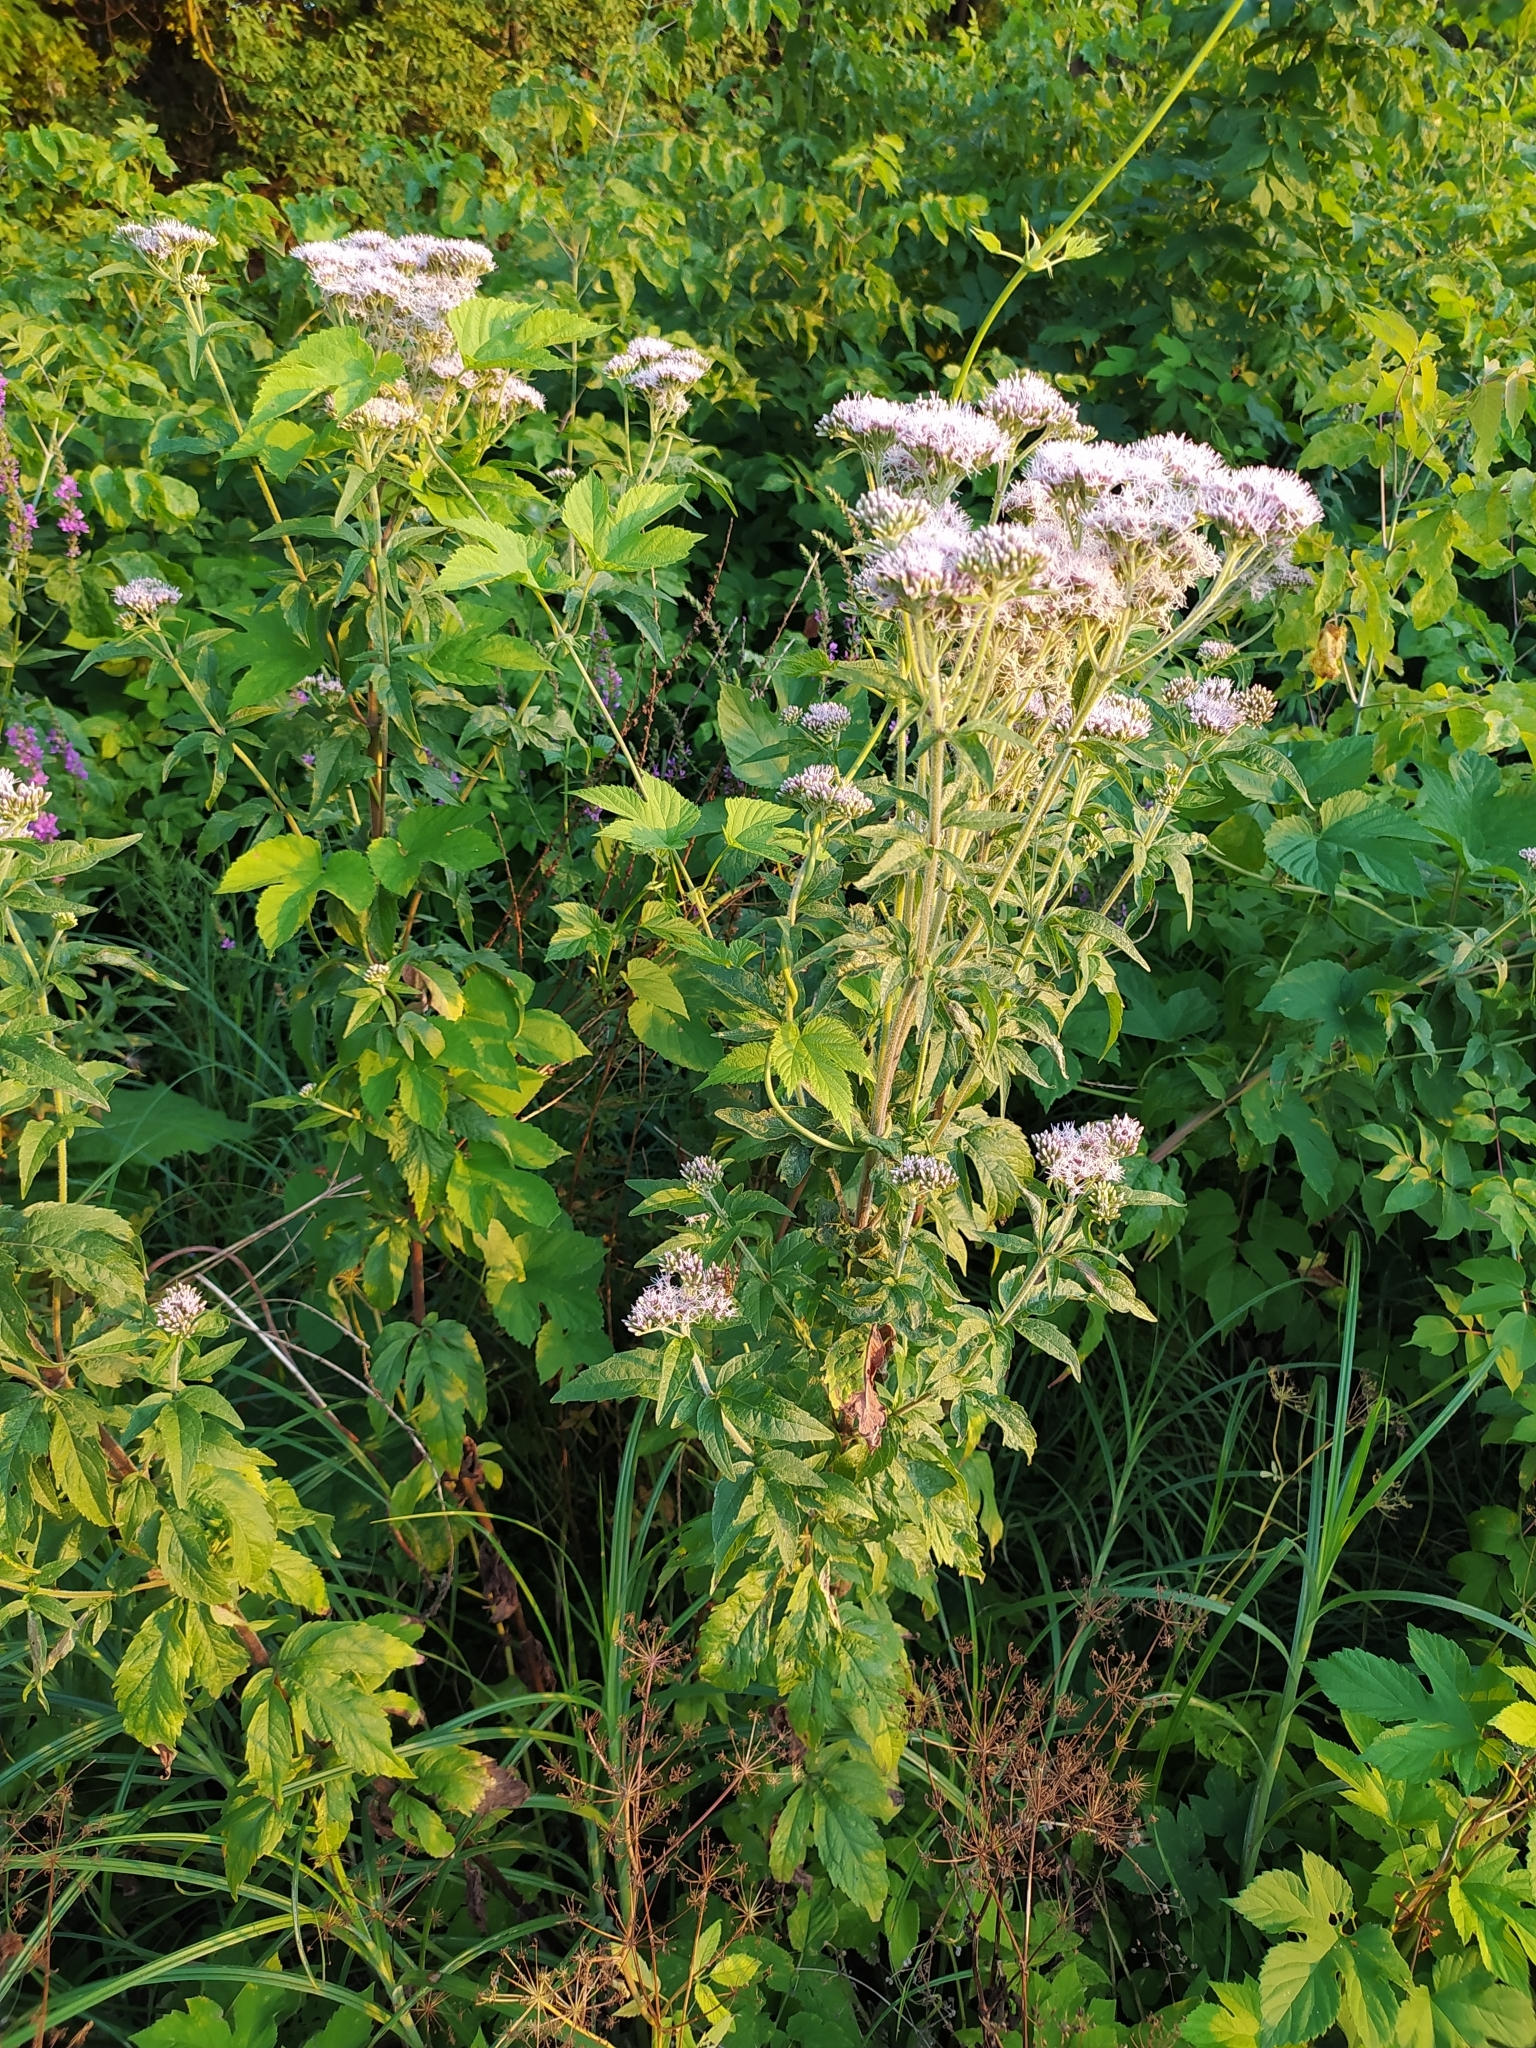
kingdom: Plantae
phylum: Tracheophyta
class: Magnoliopsida
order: Asterales
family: Asteraceae
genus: Eupatorium
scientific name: Eupatorium cannabinum
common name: Hemp-agrimony
